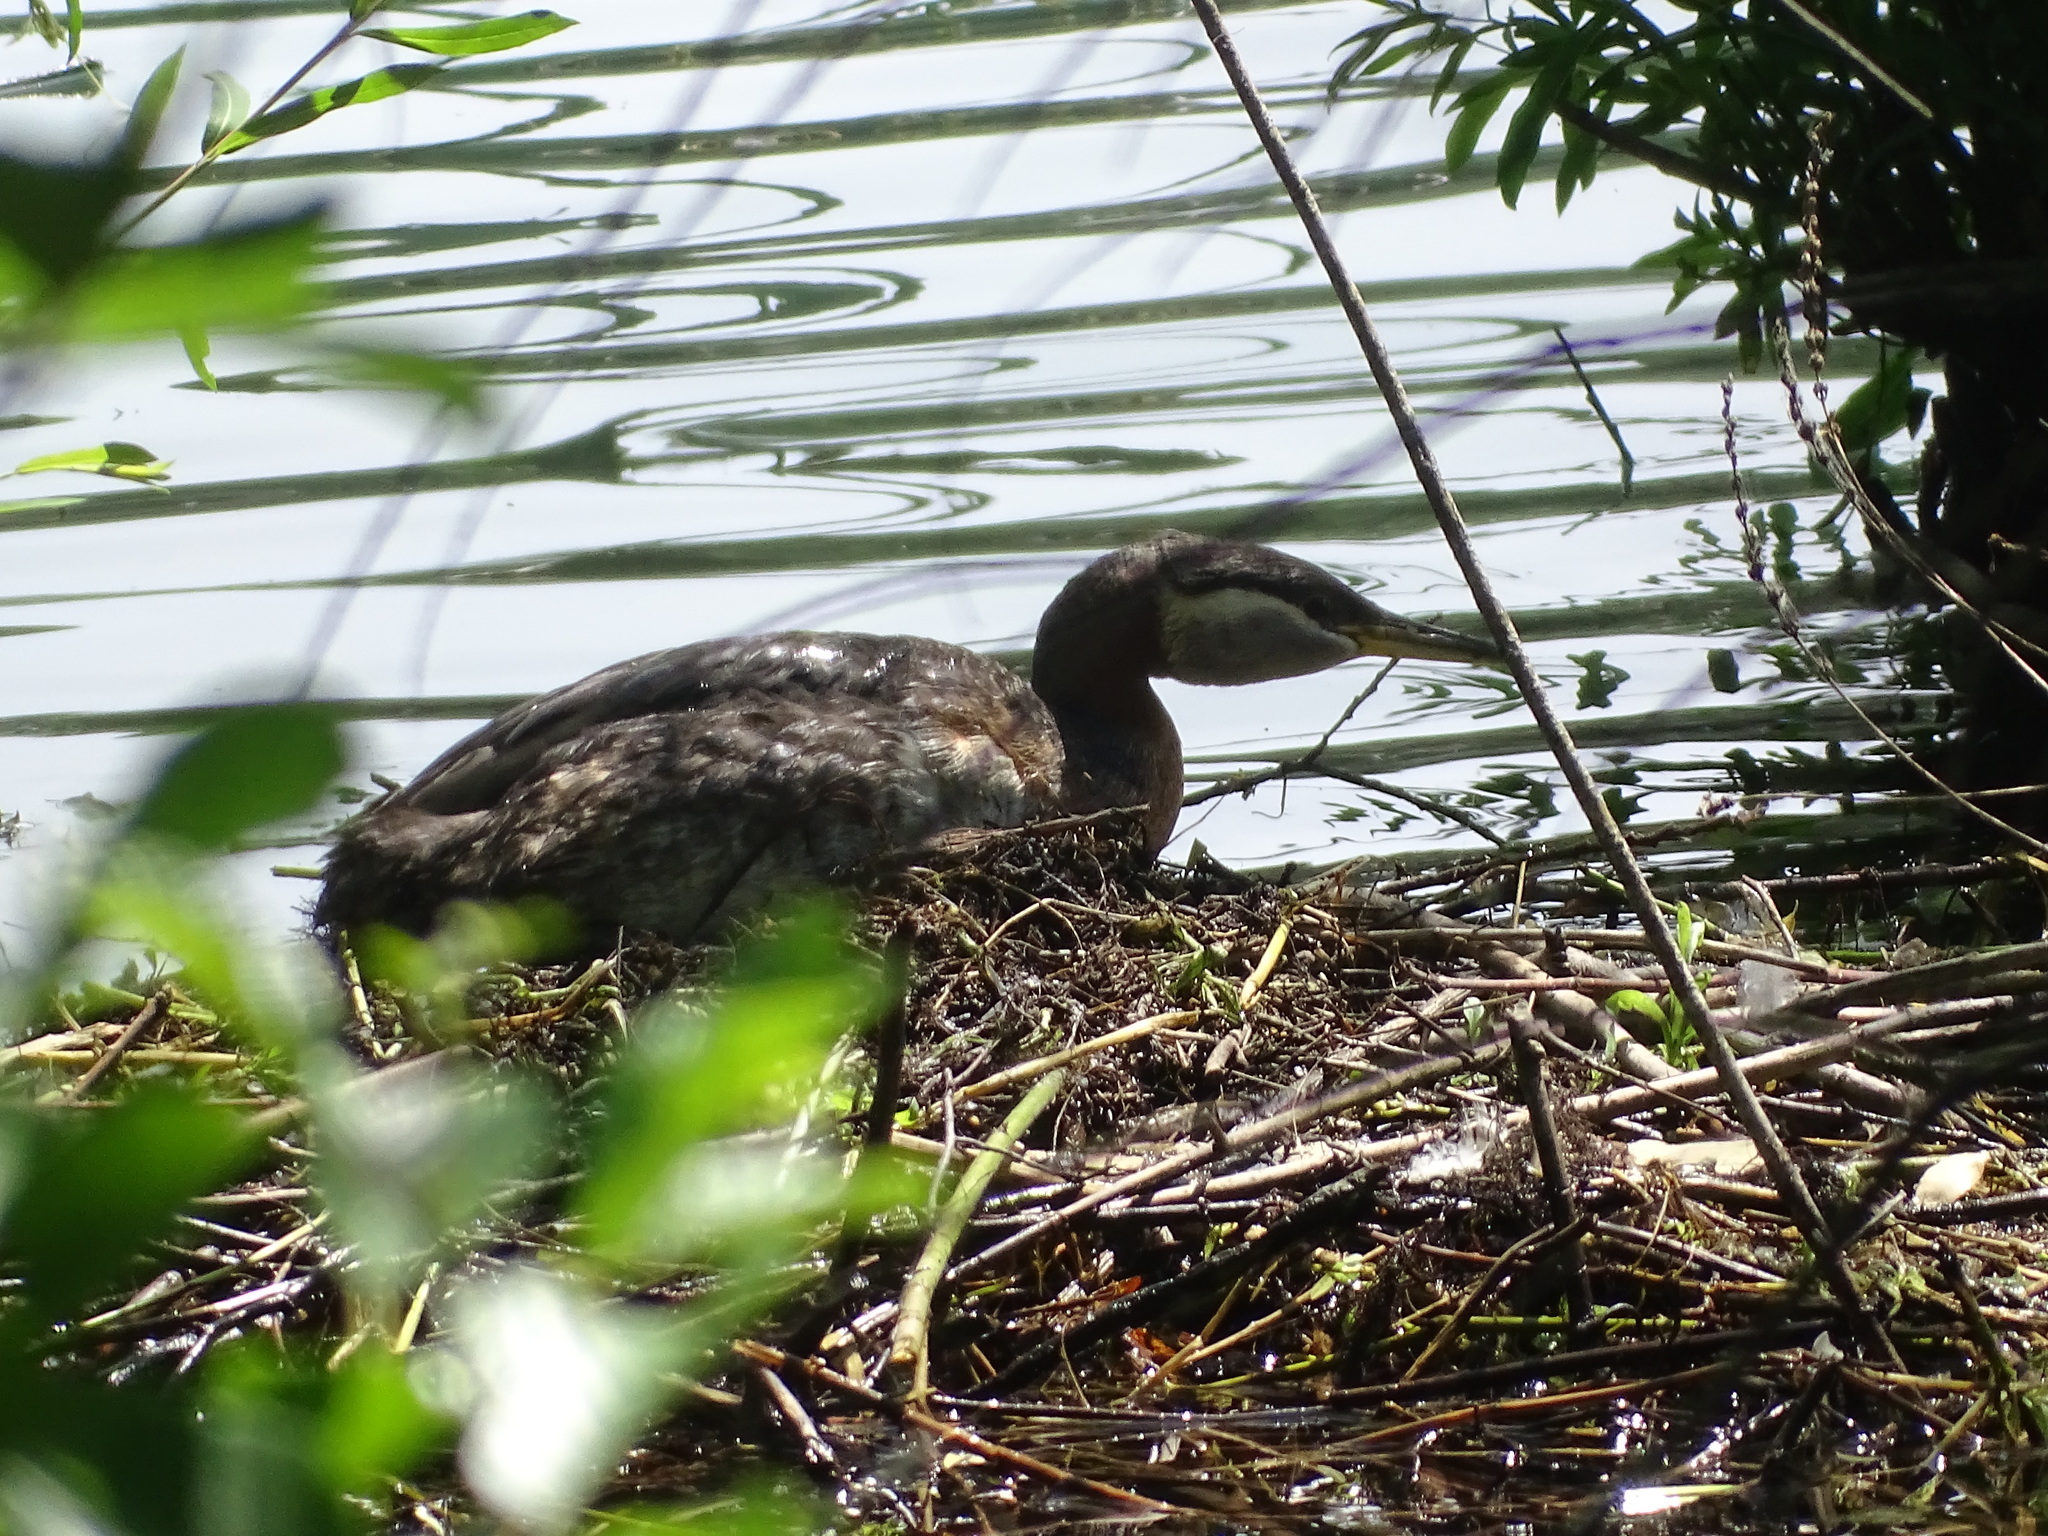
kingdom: Animalia
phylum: Chordata
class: Aves
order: Podicipediformes
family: Podicipedidae
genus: Podiceps
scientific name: Podiceps grisegena
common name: Red-necked grebe
